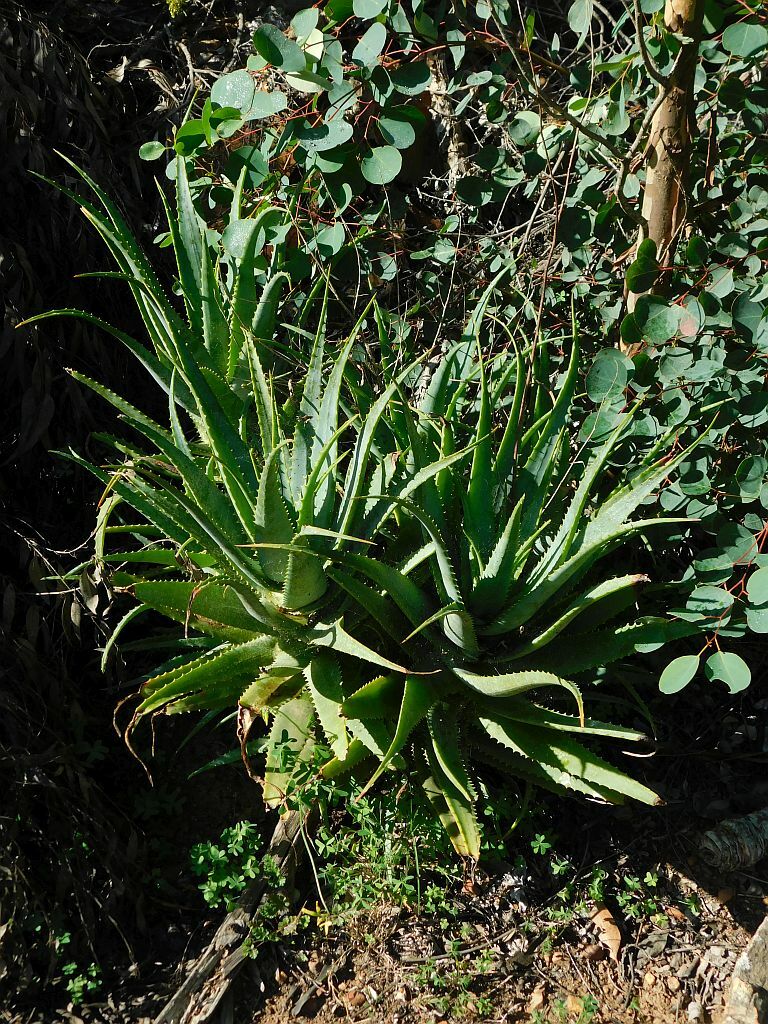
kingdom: Plantae
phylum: Tracheophyta
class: Liliopsida
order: Asparagales
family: Asphodelaceae
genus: Aloe
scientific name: Aloe arborescens
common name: Candelabra aloe
